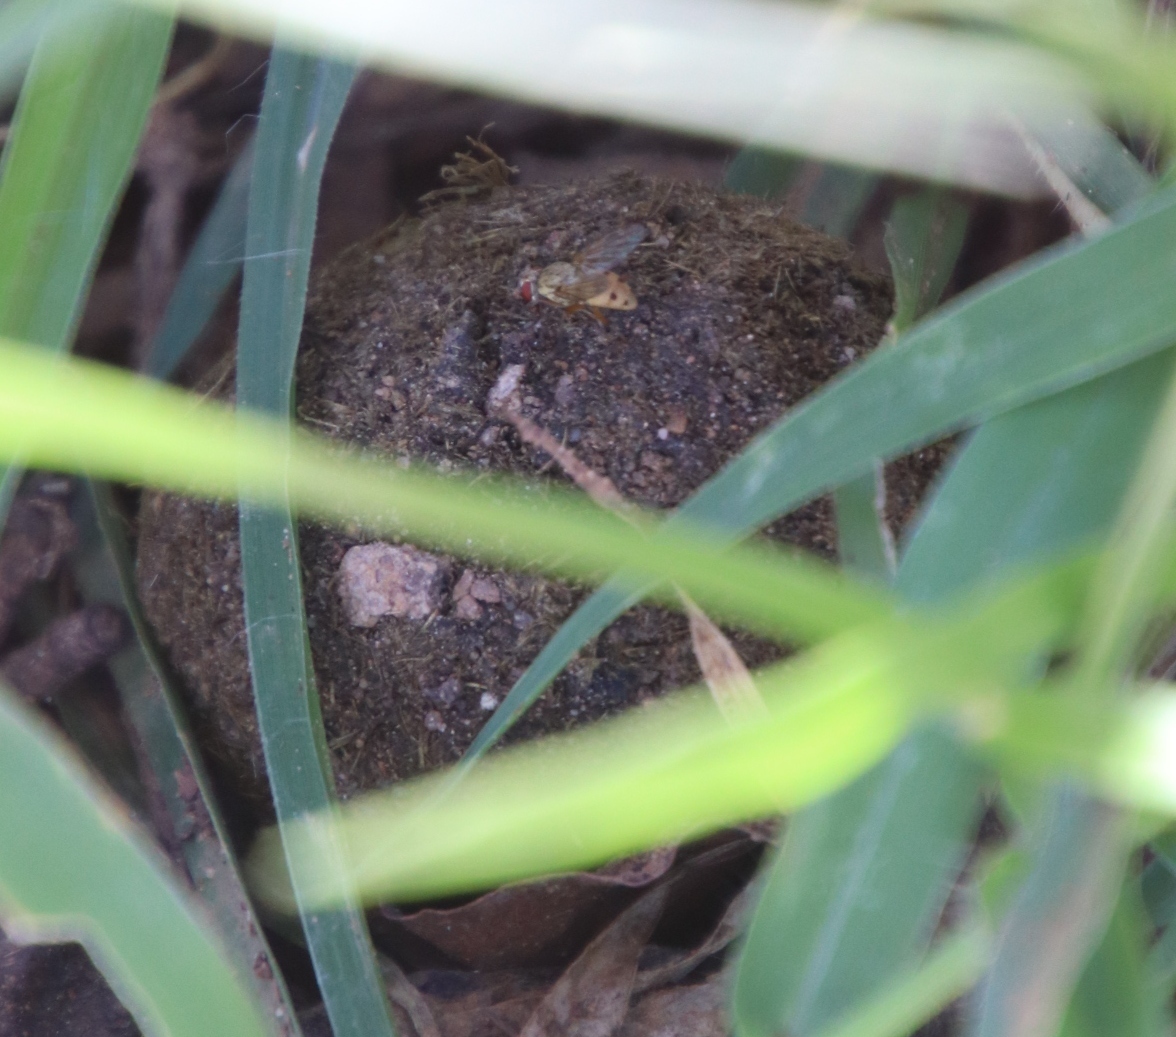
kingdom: Animalia
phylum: Arthropoda
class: Insecta
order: Coleoptera
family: Scarabaeidae
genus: Kheper
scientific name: Kheper nigroaeneus
